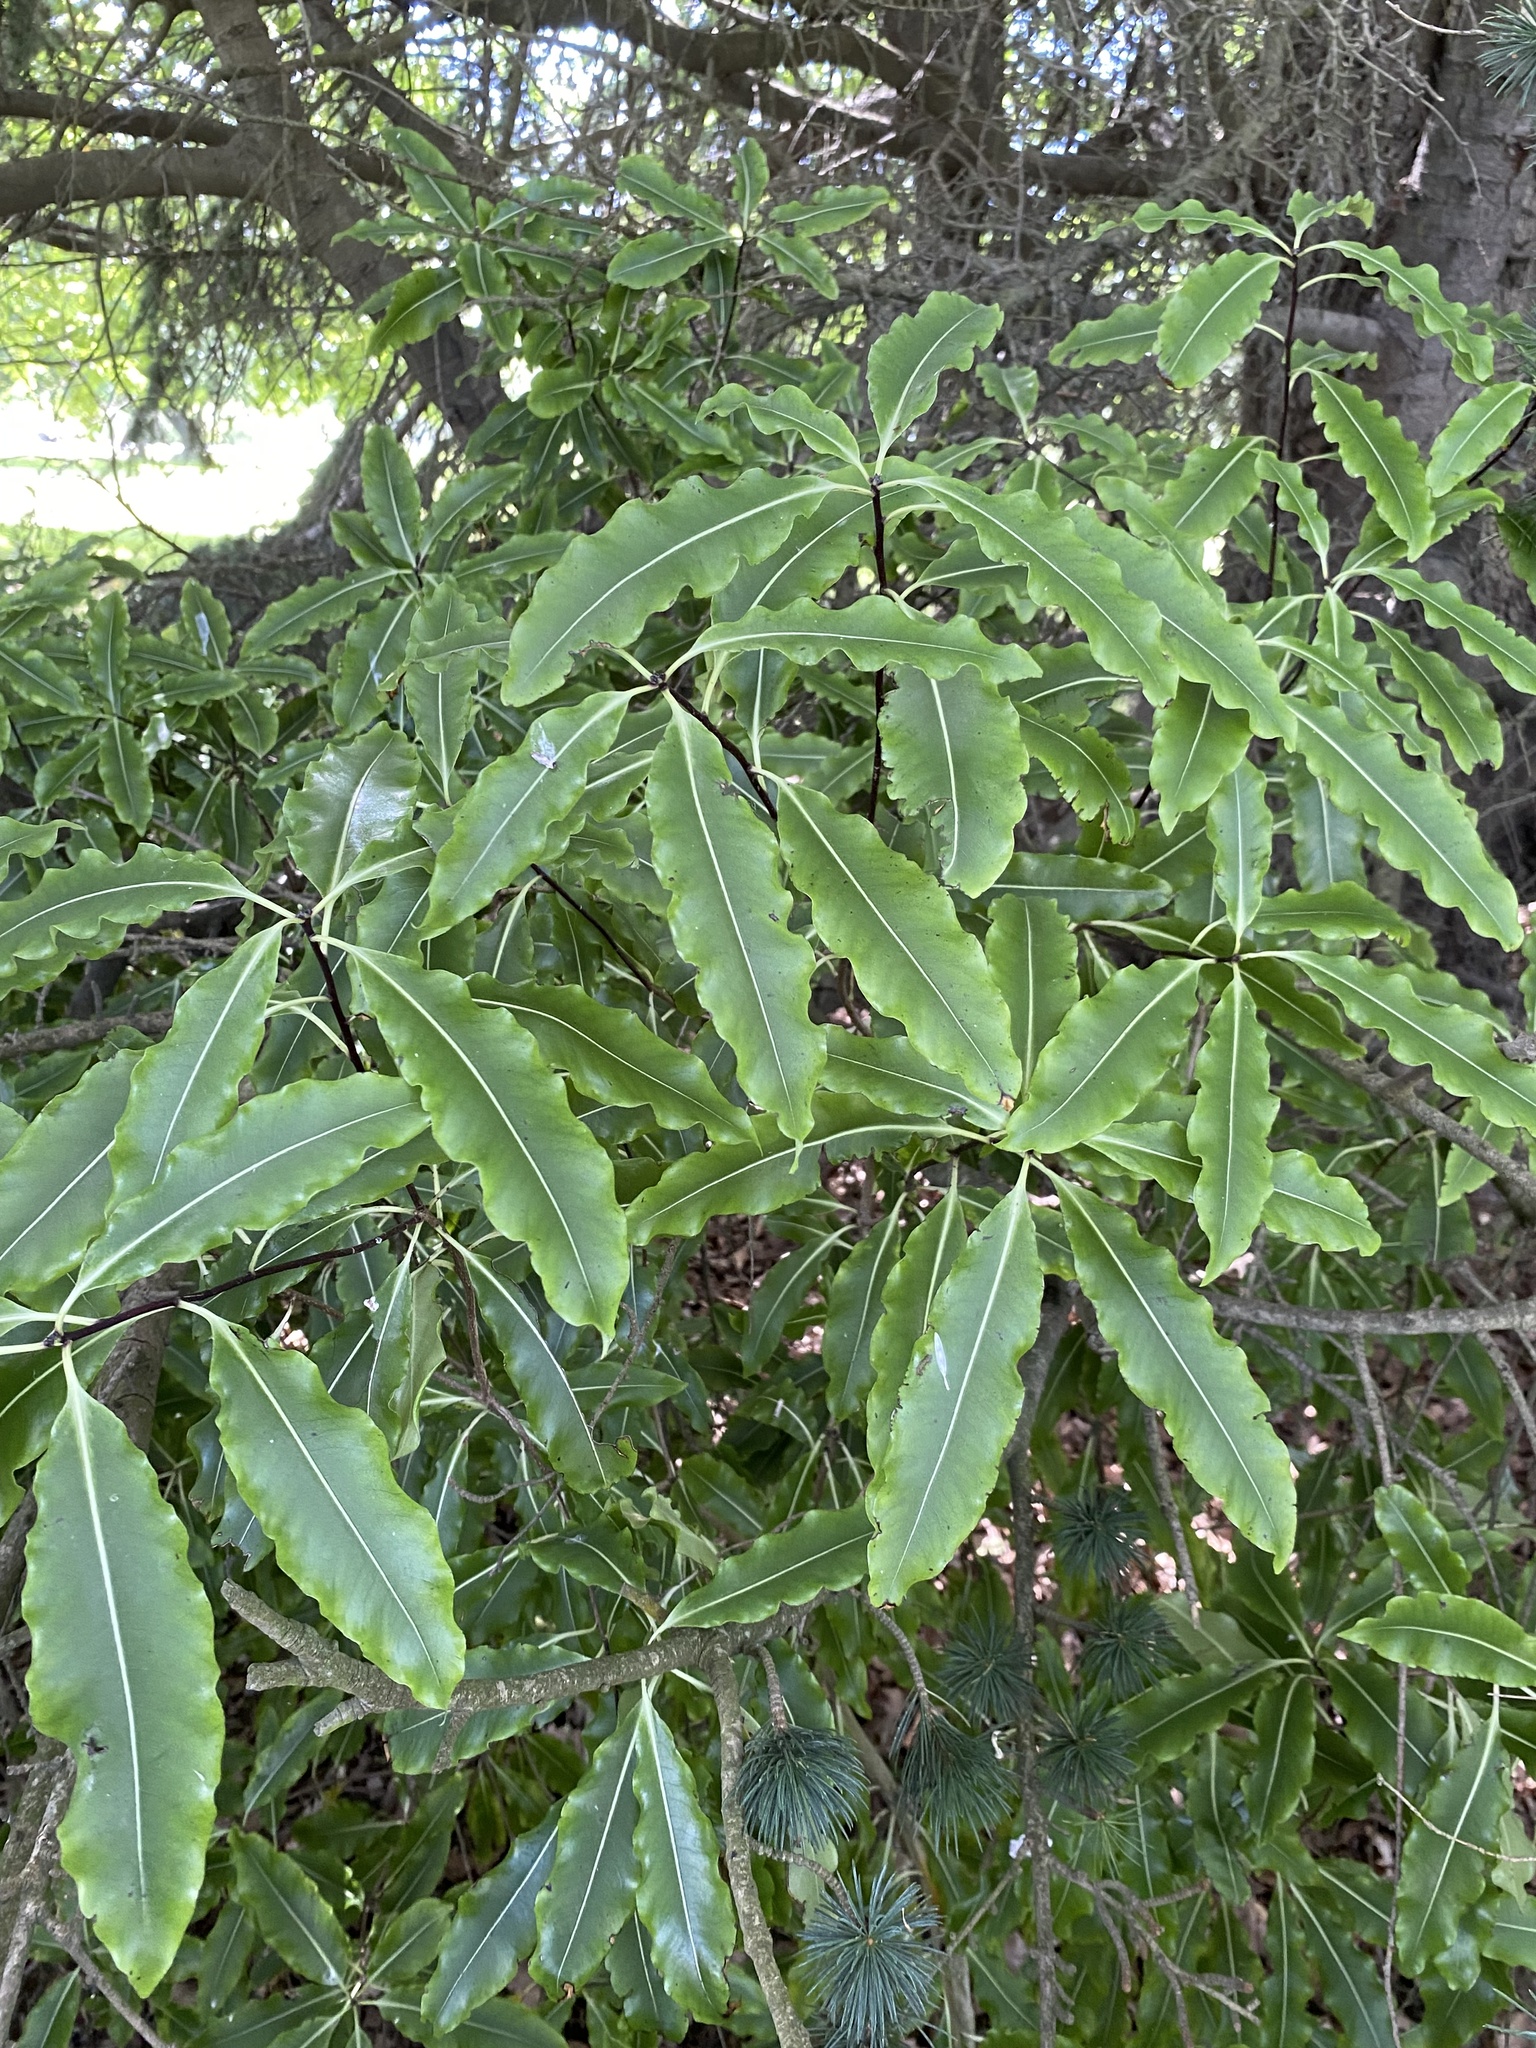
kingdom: Plantae
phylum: Tracheophyta
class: Magnoliopsida
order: Apiales
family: Pittosporaceae
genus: Pittosporum
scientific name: Pittosporum eugenioides
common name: Lemonwood
